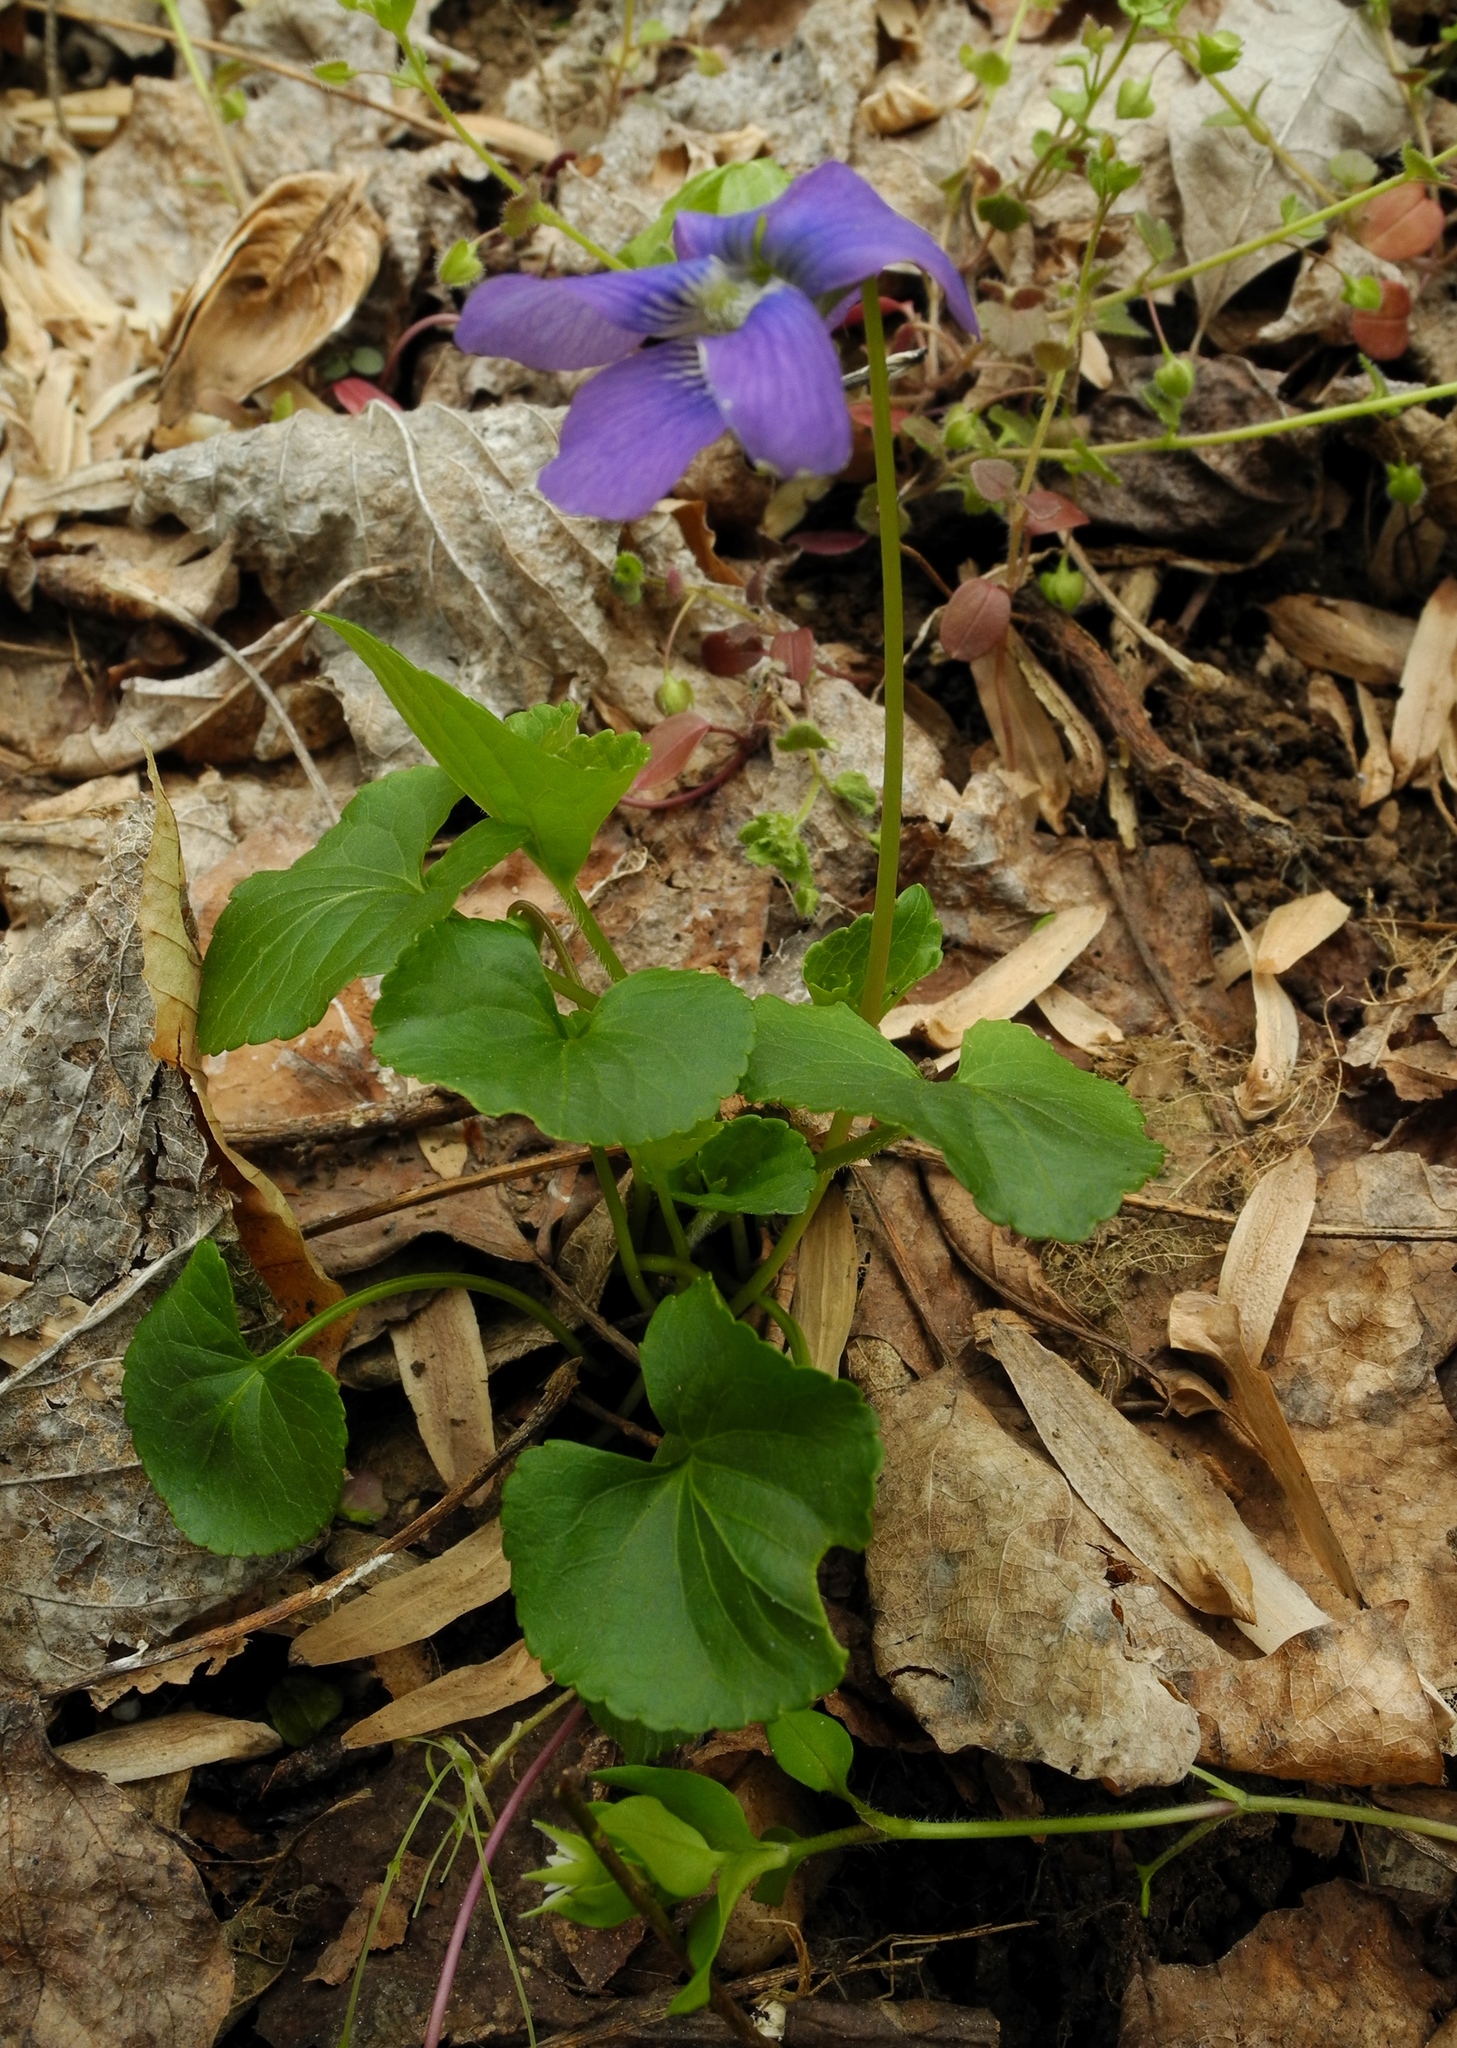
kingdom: Plantae
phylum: Tracheophyta
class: Magnoliopsida
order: Malpighiales
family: Violaceae
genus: Viola
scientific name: Viola sororia
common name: Dooryard violet
